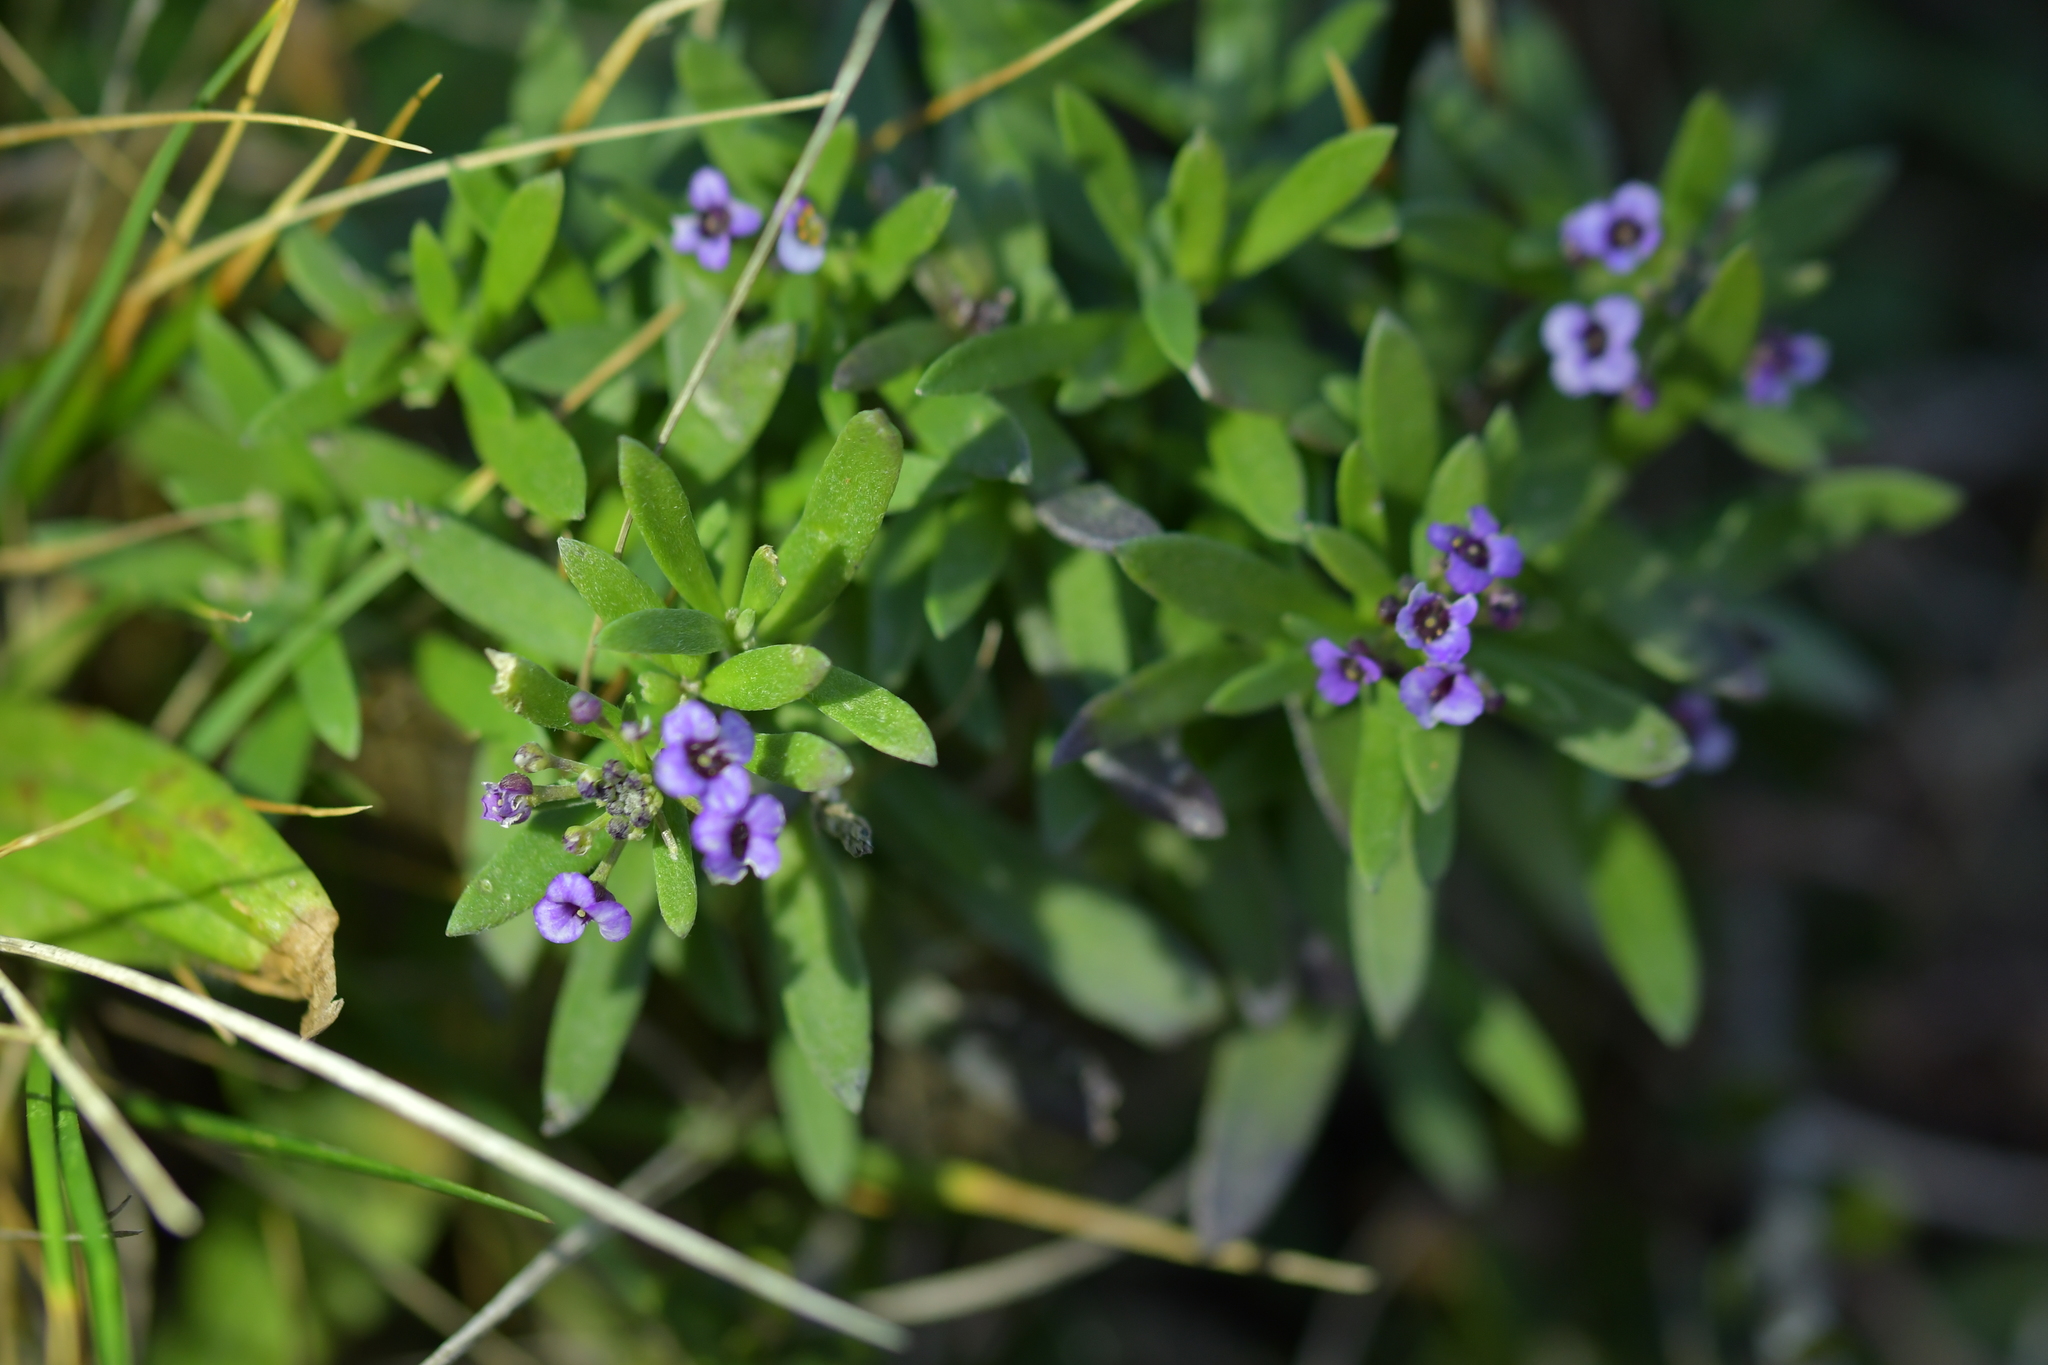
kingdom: Plantae
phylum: Tracheophyta
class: Magnoliopsida
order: Brassicales
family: Brassicaceae
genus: Lobularia
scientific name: Lobularia maritima
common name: Sweet alison
